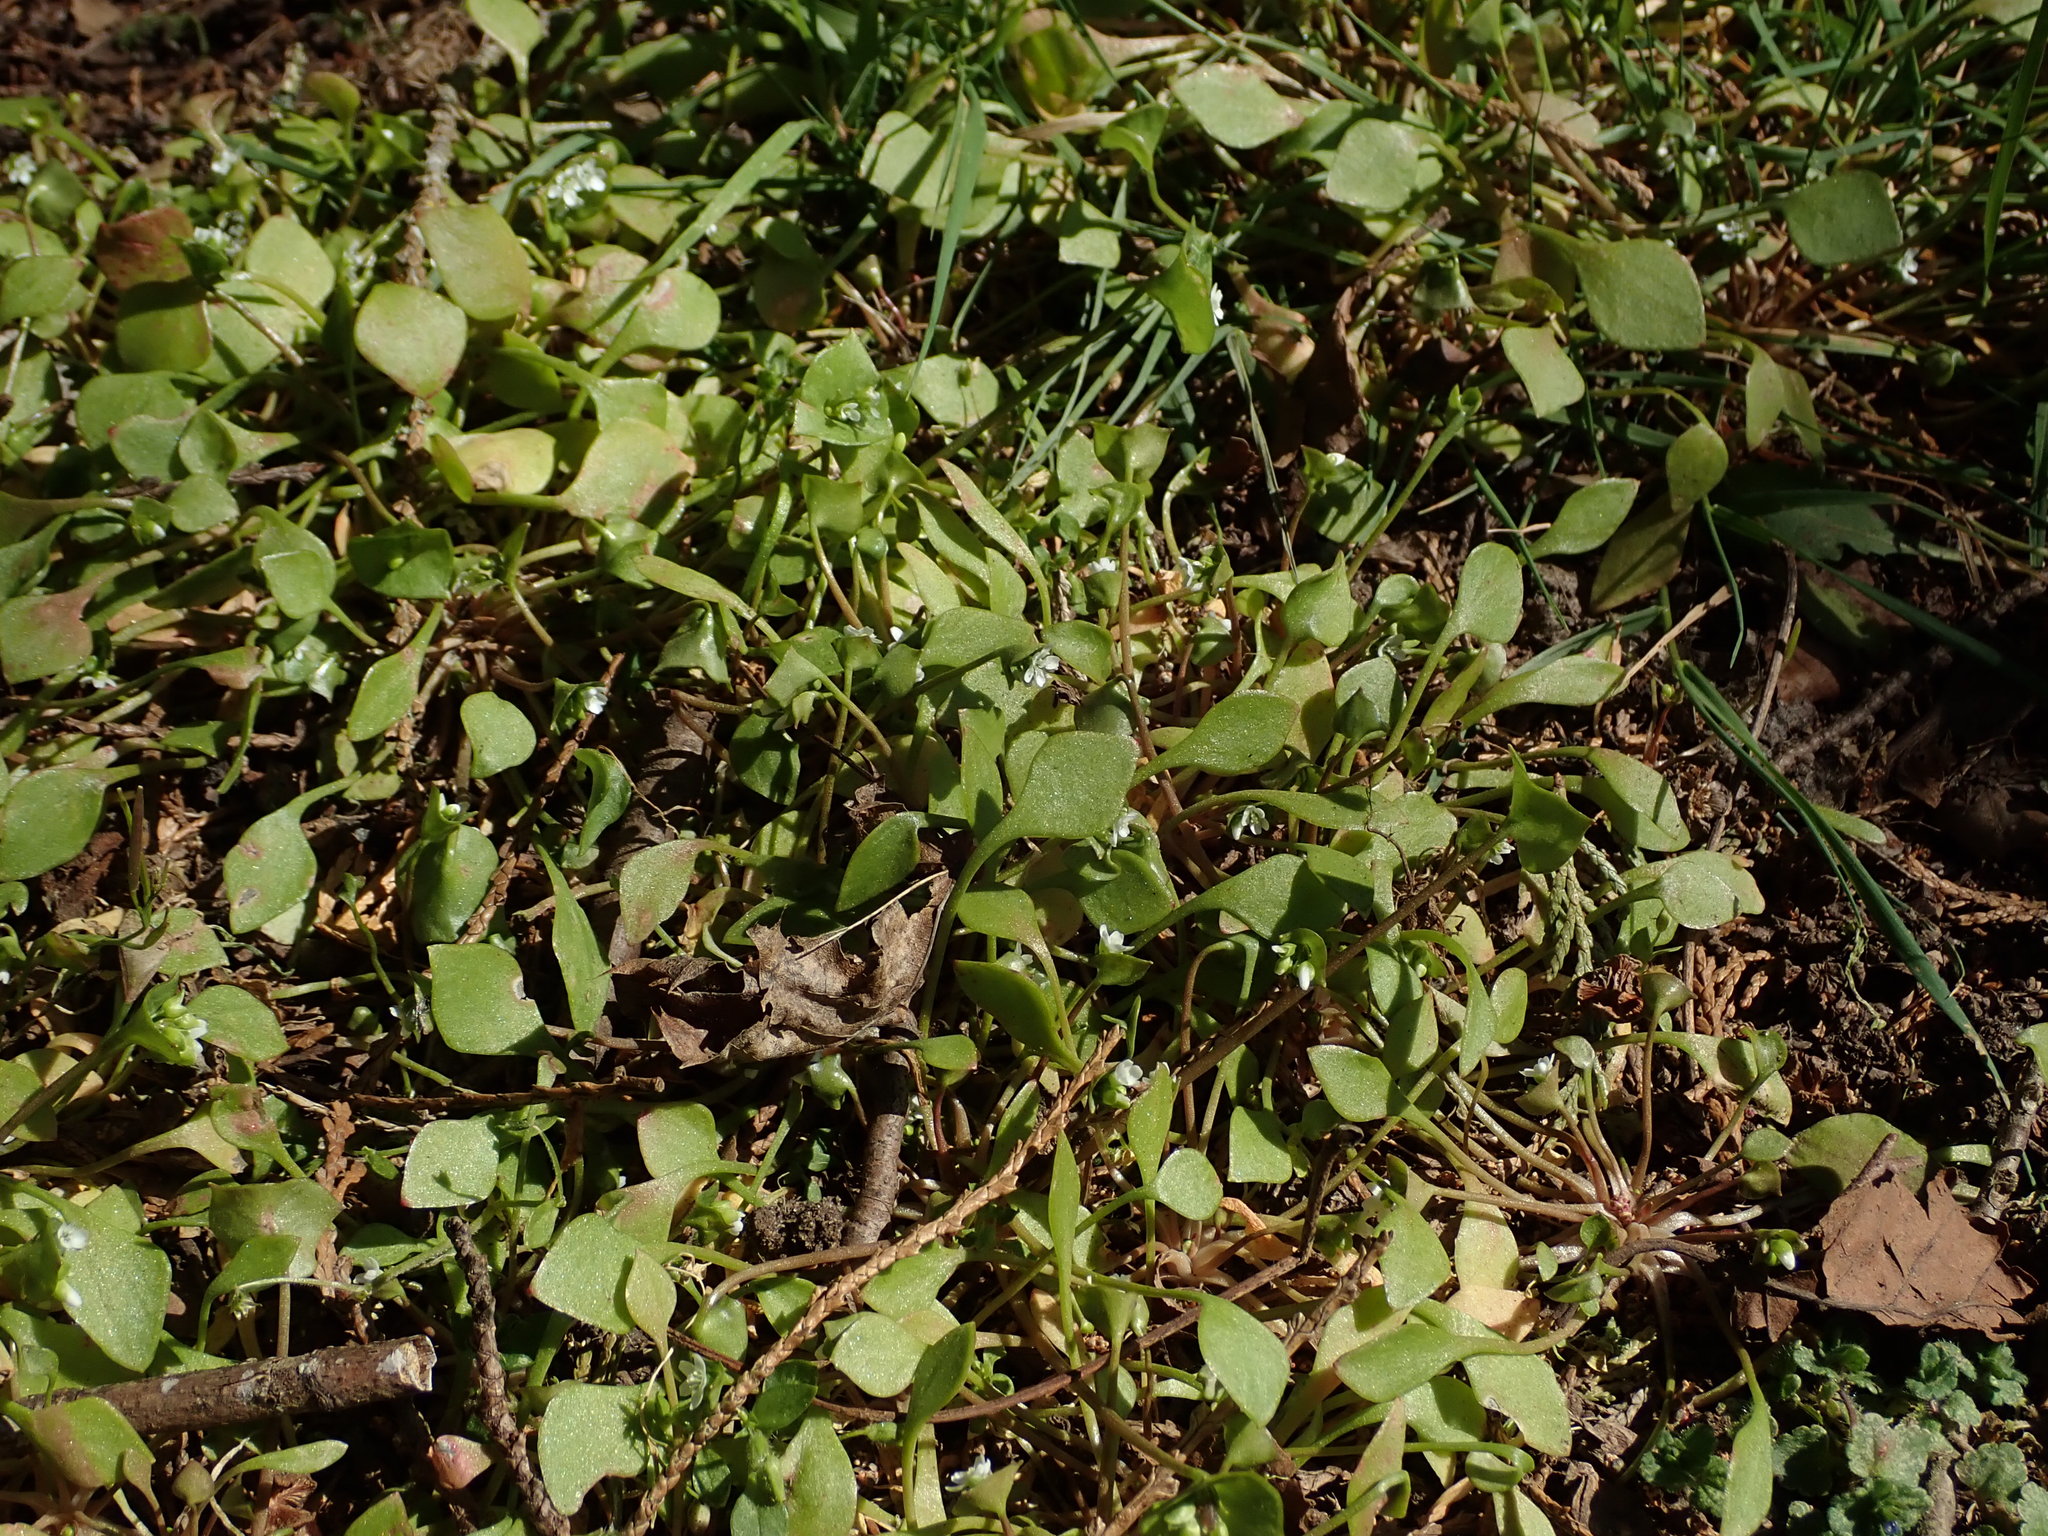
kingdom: Plantae
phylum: Tracheophyta
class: Magnoliopsida
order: Caryophyllales
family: Montiaceae
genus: Claytonia
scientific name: Claytonia perfoliata
